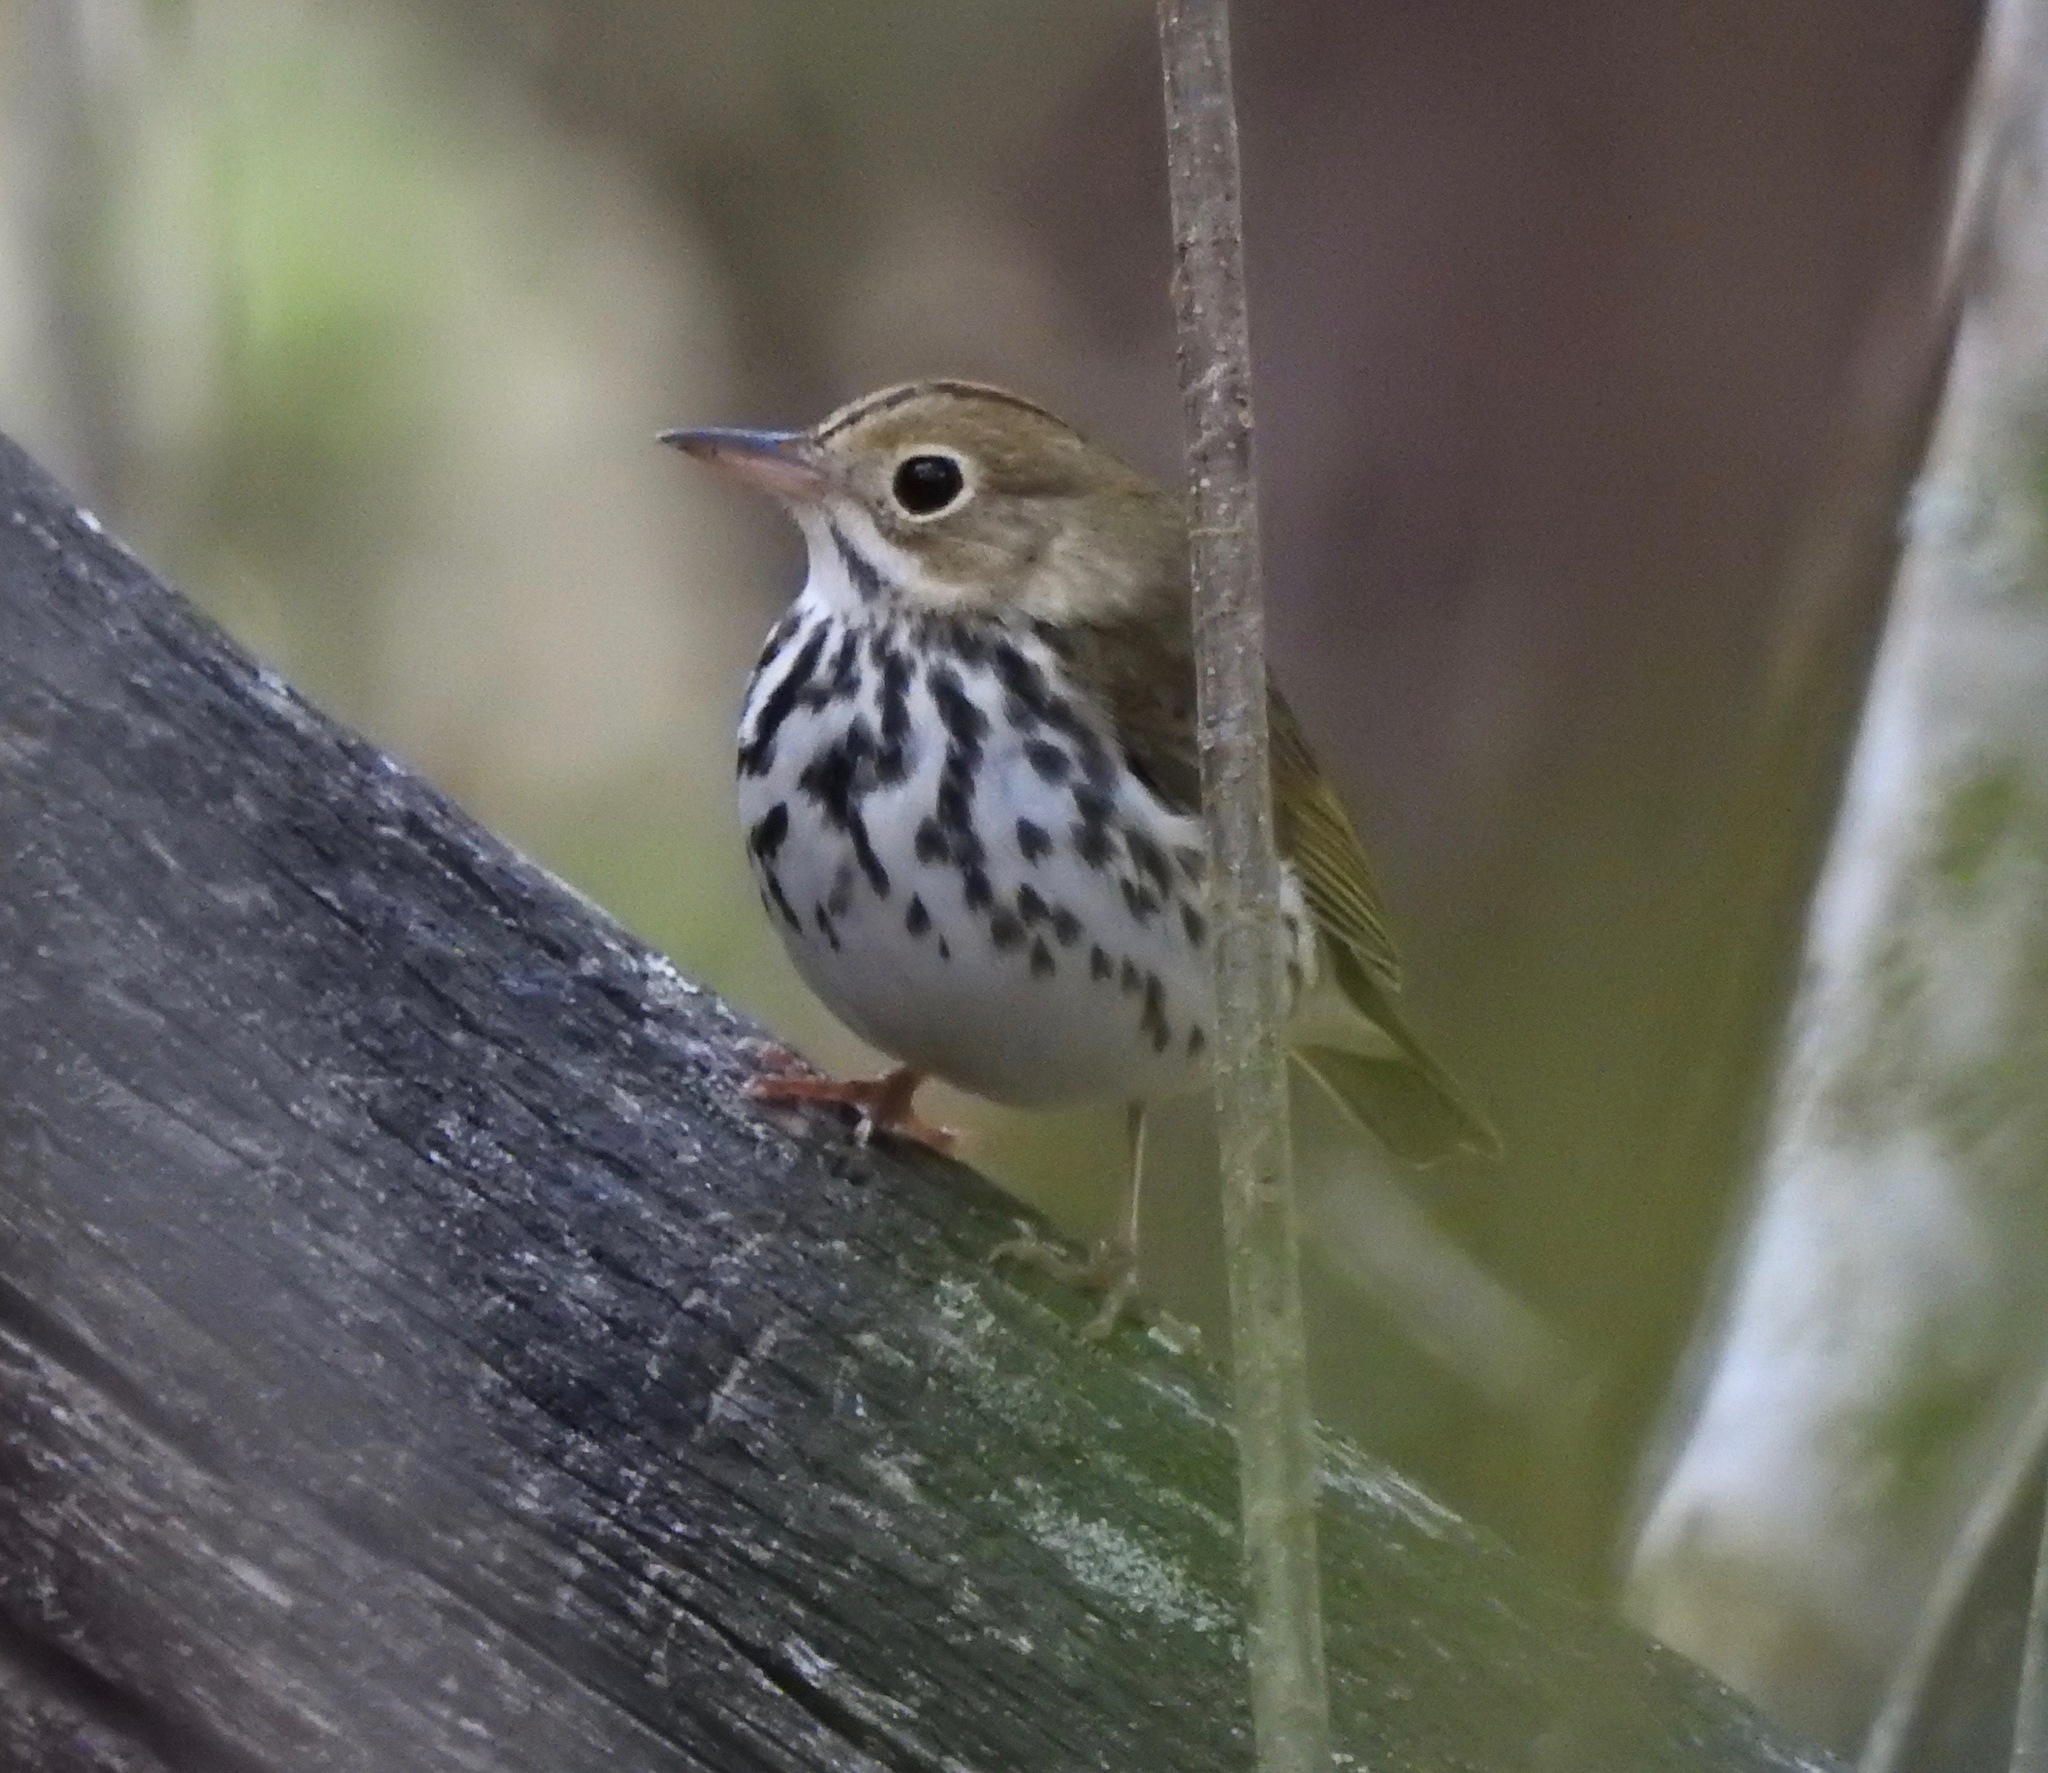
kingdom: Animalia
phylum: Chordata
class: Aves
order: Passeriformes
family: Parulidae
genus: Seiurus
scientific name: Seiurus aurocapilla
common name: Ovenbird
